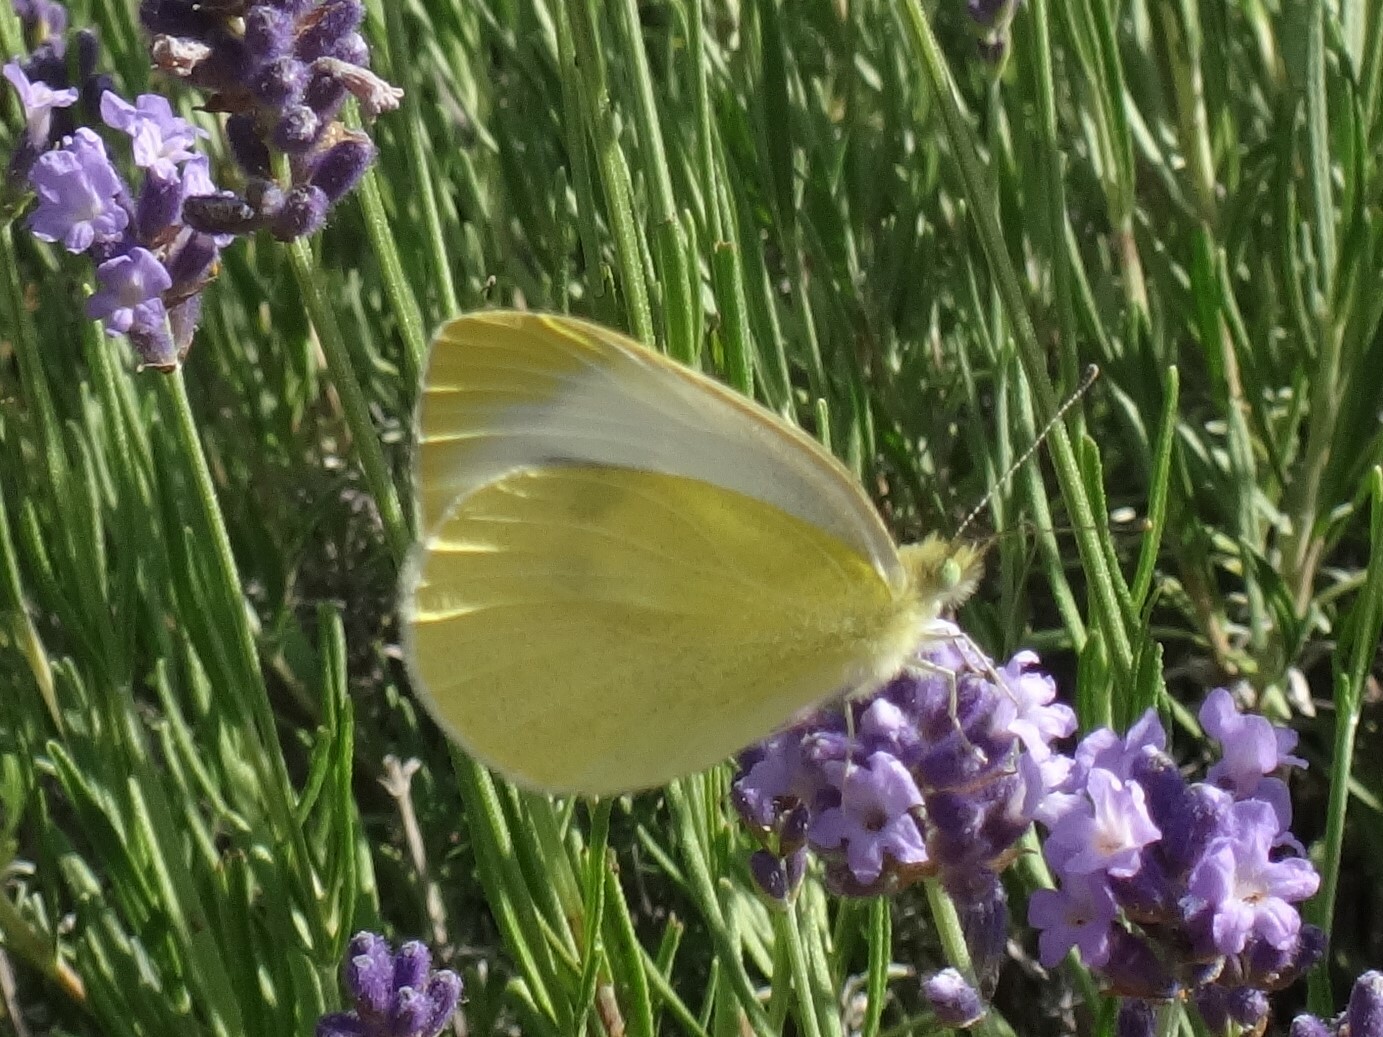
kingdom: Animalia
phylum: Arthropoda
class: Insecta
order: Lepidoptera
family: Pieridae
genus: Pieris
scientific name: Pieris mannii
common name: Southern small white
